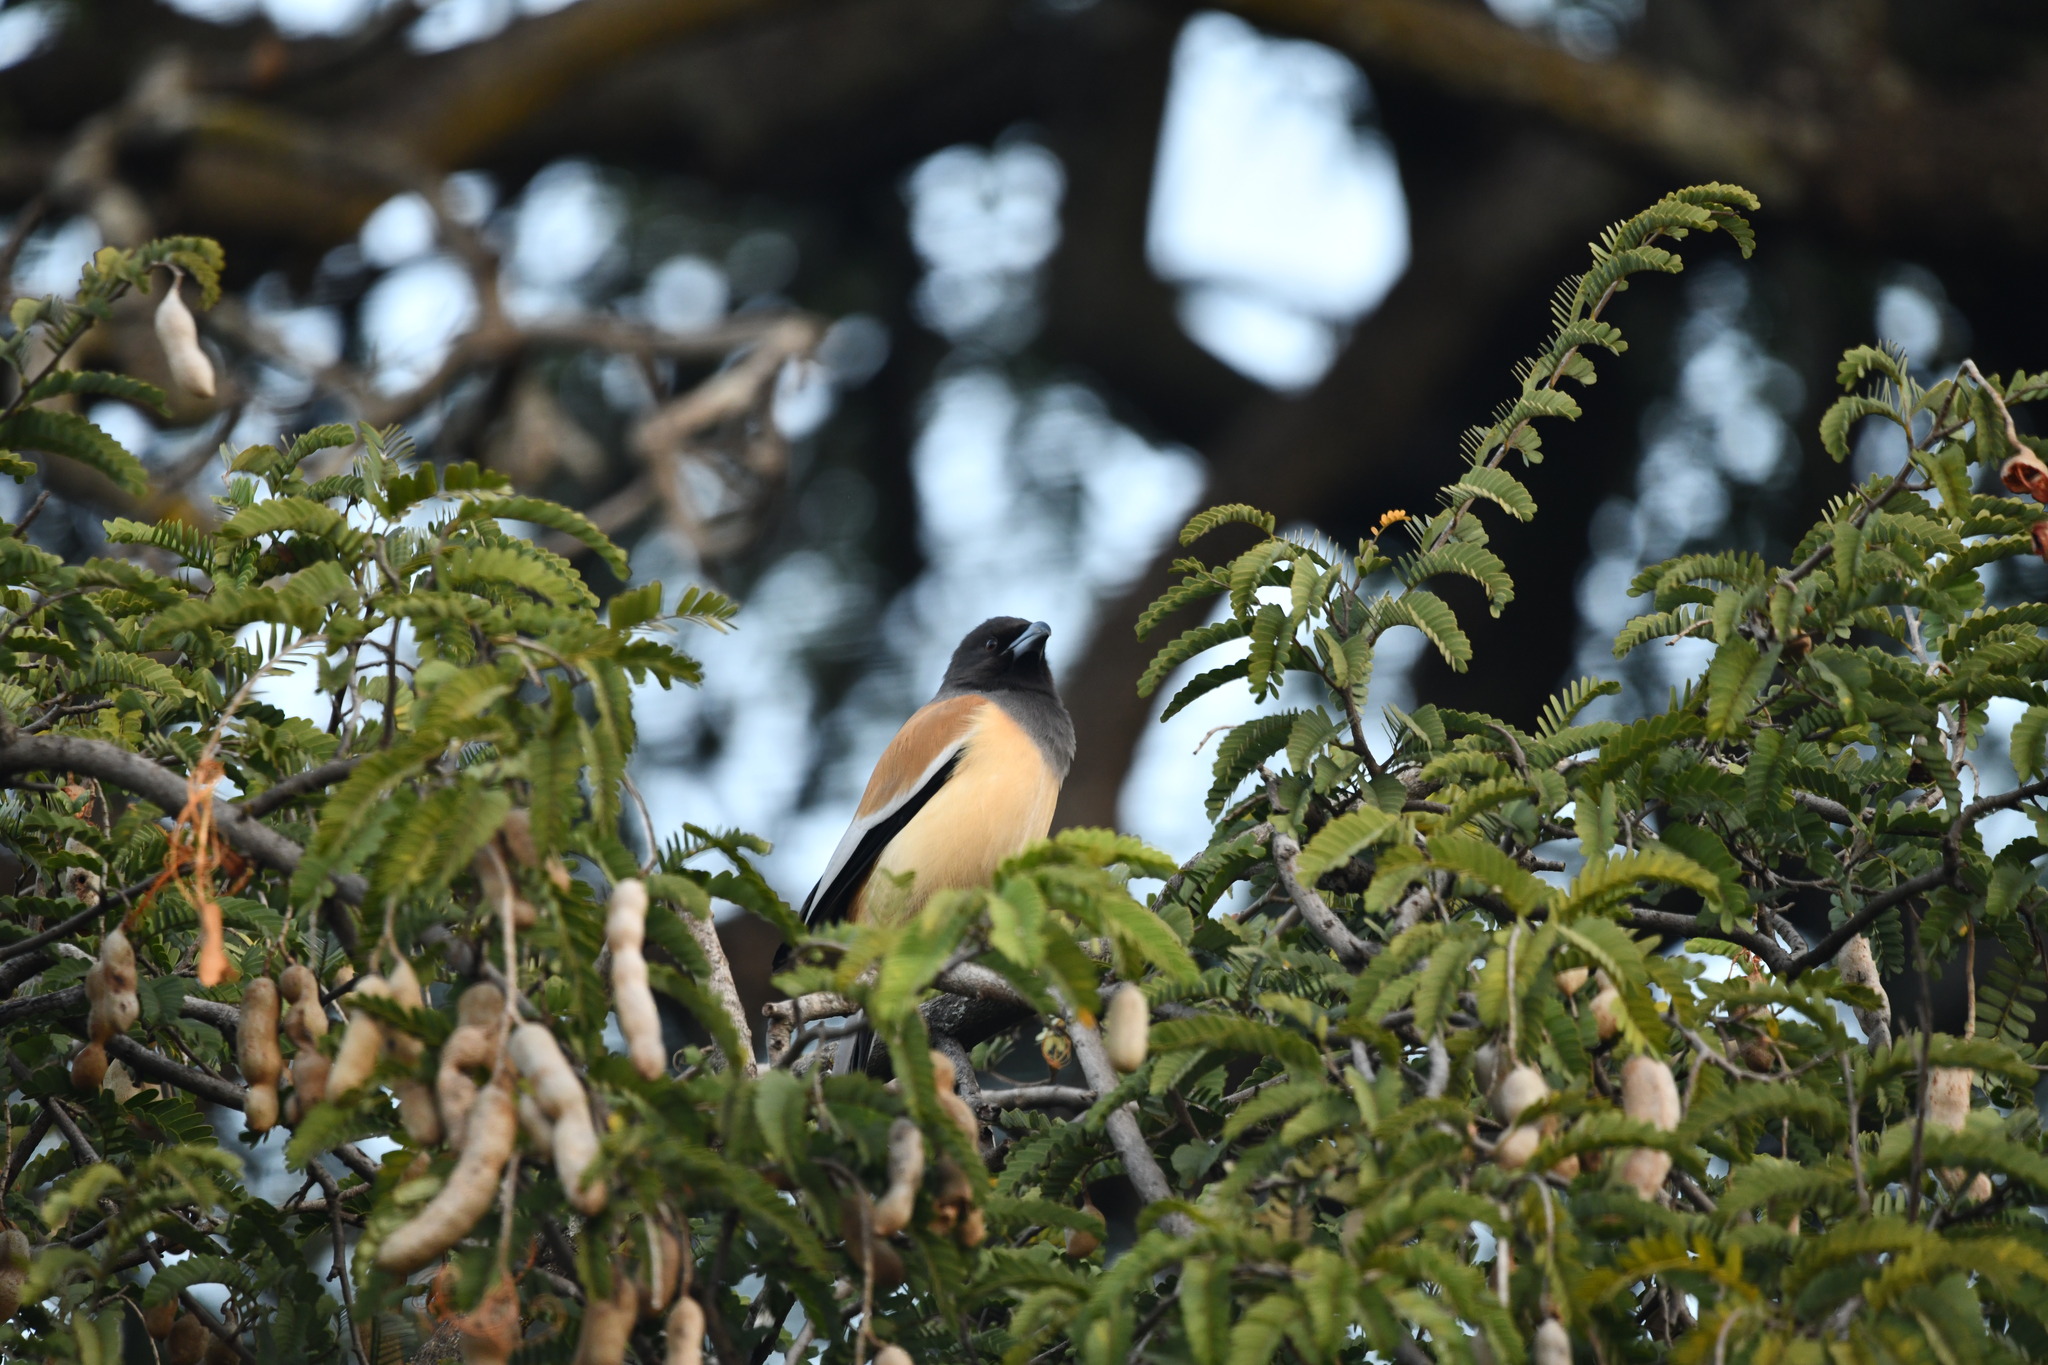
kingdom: Animalia
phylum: Chordata
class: Aves
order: Passeriformes
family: Corvidae
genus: Dendrocitta
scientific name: Dendrocitta vagabunda
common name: Rufous treepie
